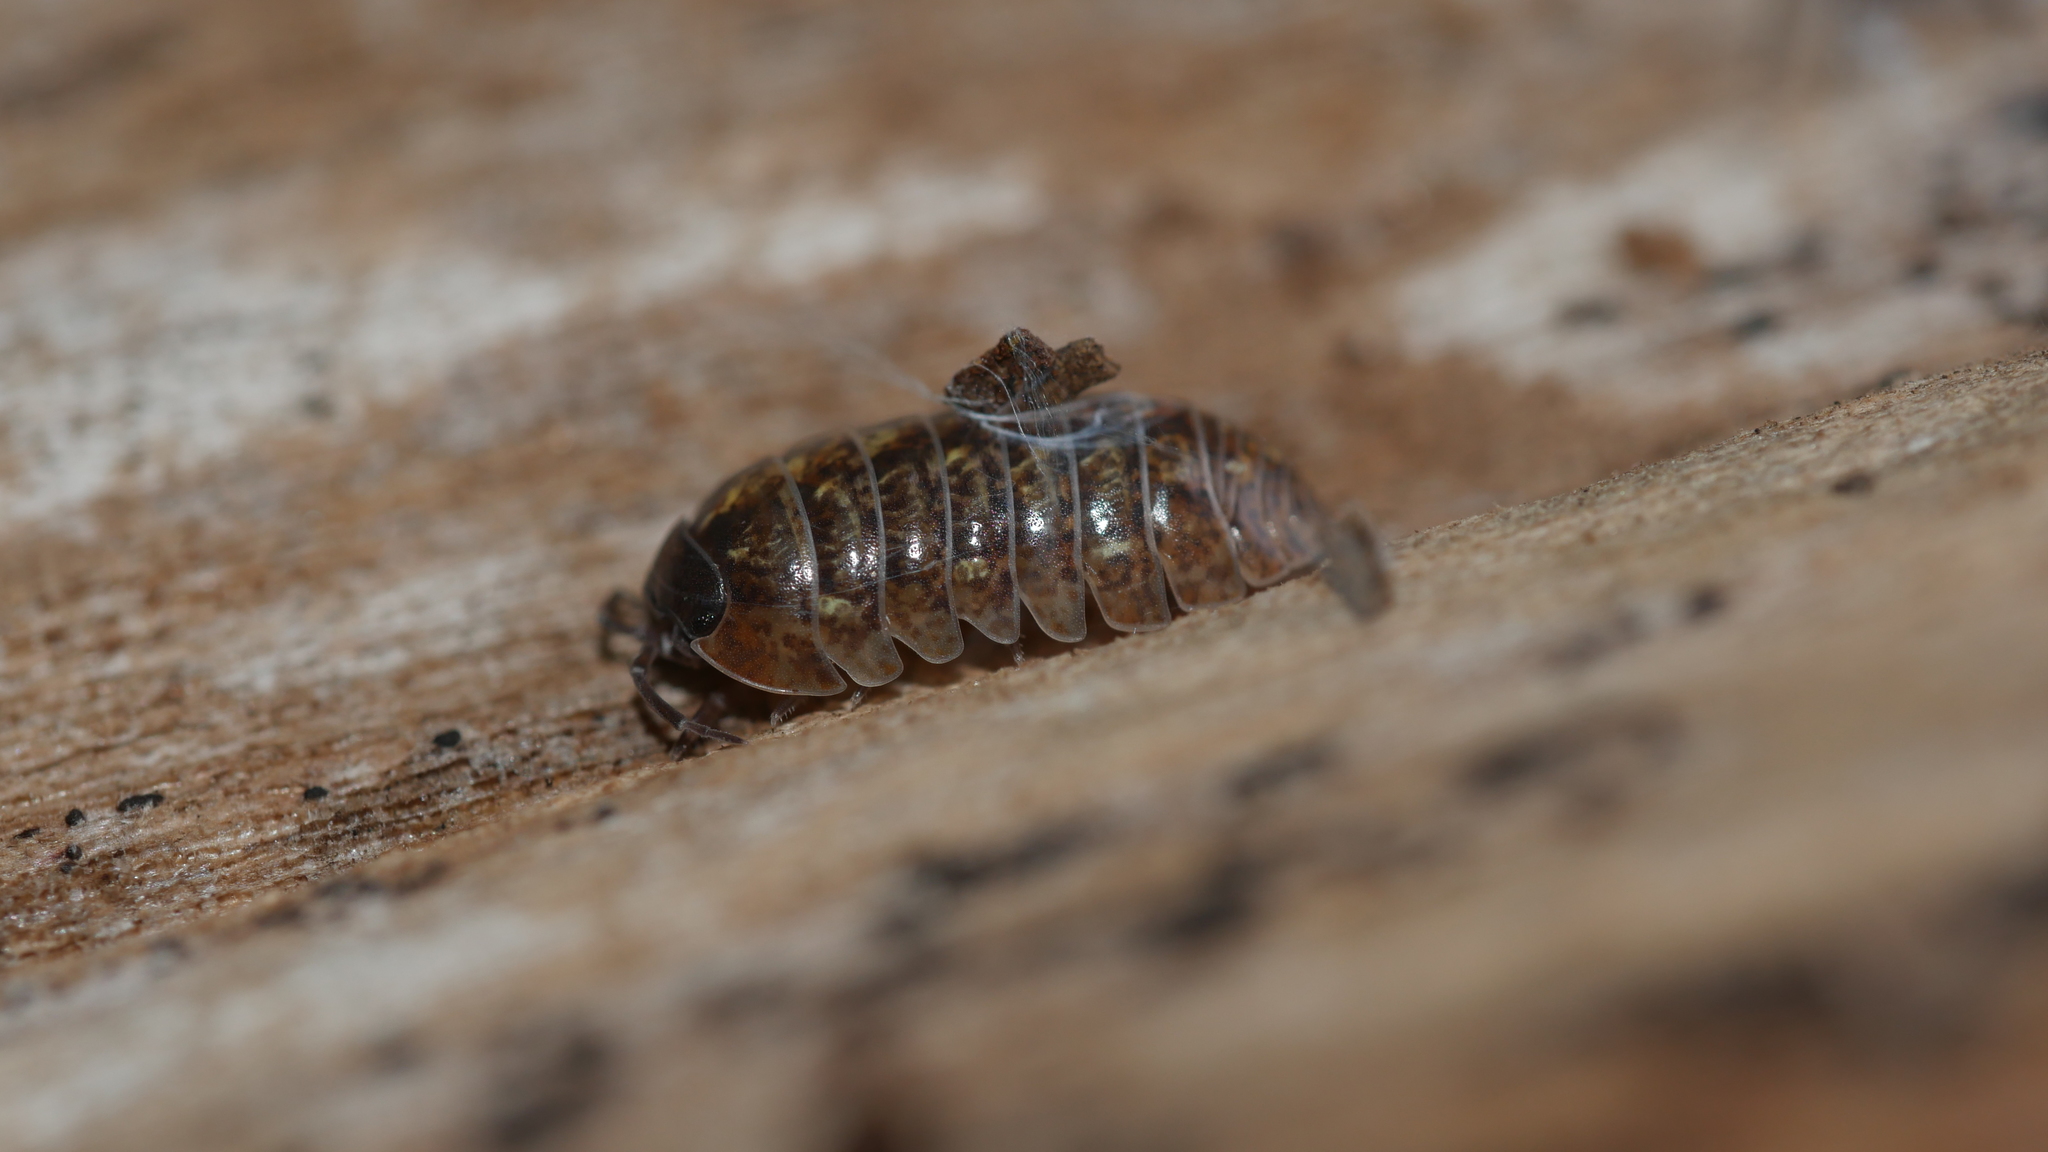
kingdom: Animalia
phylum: Arthropoda
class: Malacostraca
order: Isopoda
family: Armadillidiidae
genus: Armadillidium
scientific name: Armadillidium vulgare
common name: Common pill woodlouse
